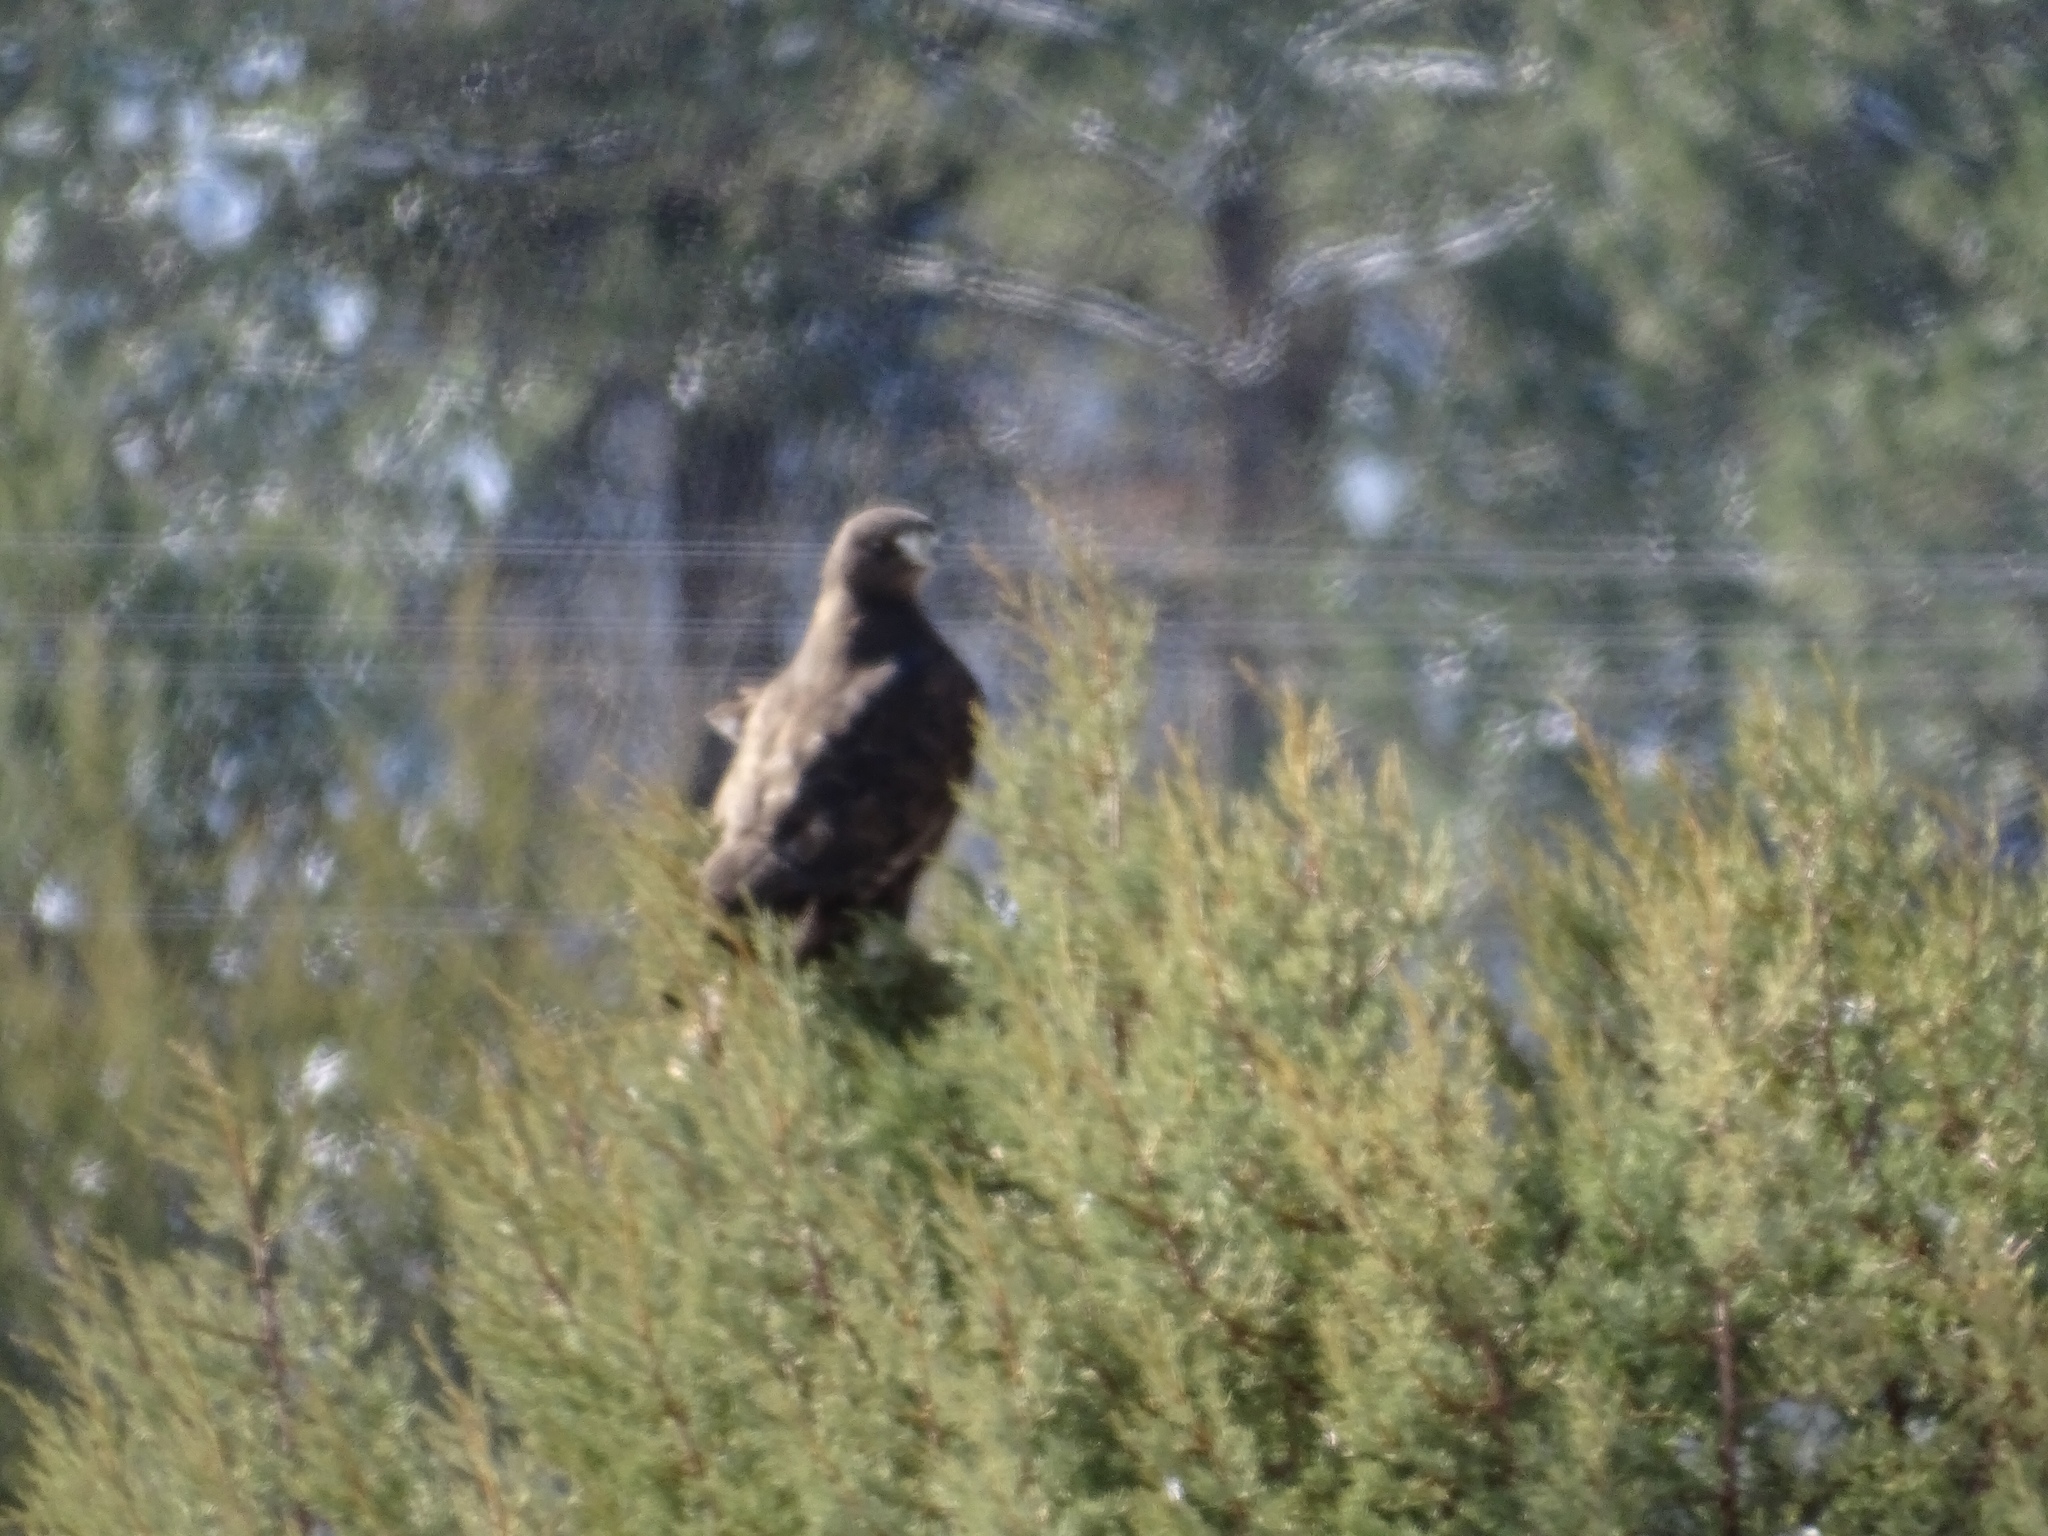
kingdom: Animalia
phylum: Chordata
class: Aves
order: Accipitriformes
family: Accipitridae
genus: Buteo
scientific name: Buteo jamaicensis
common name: Red-tailed hawk
